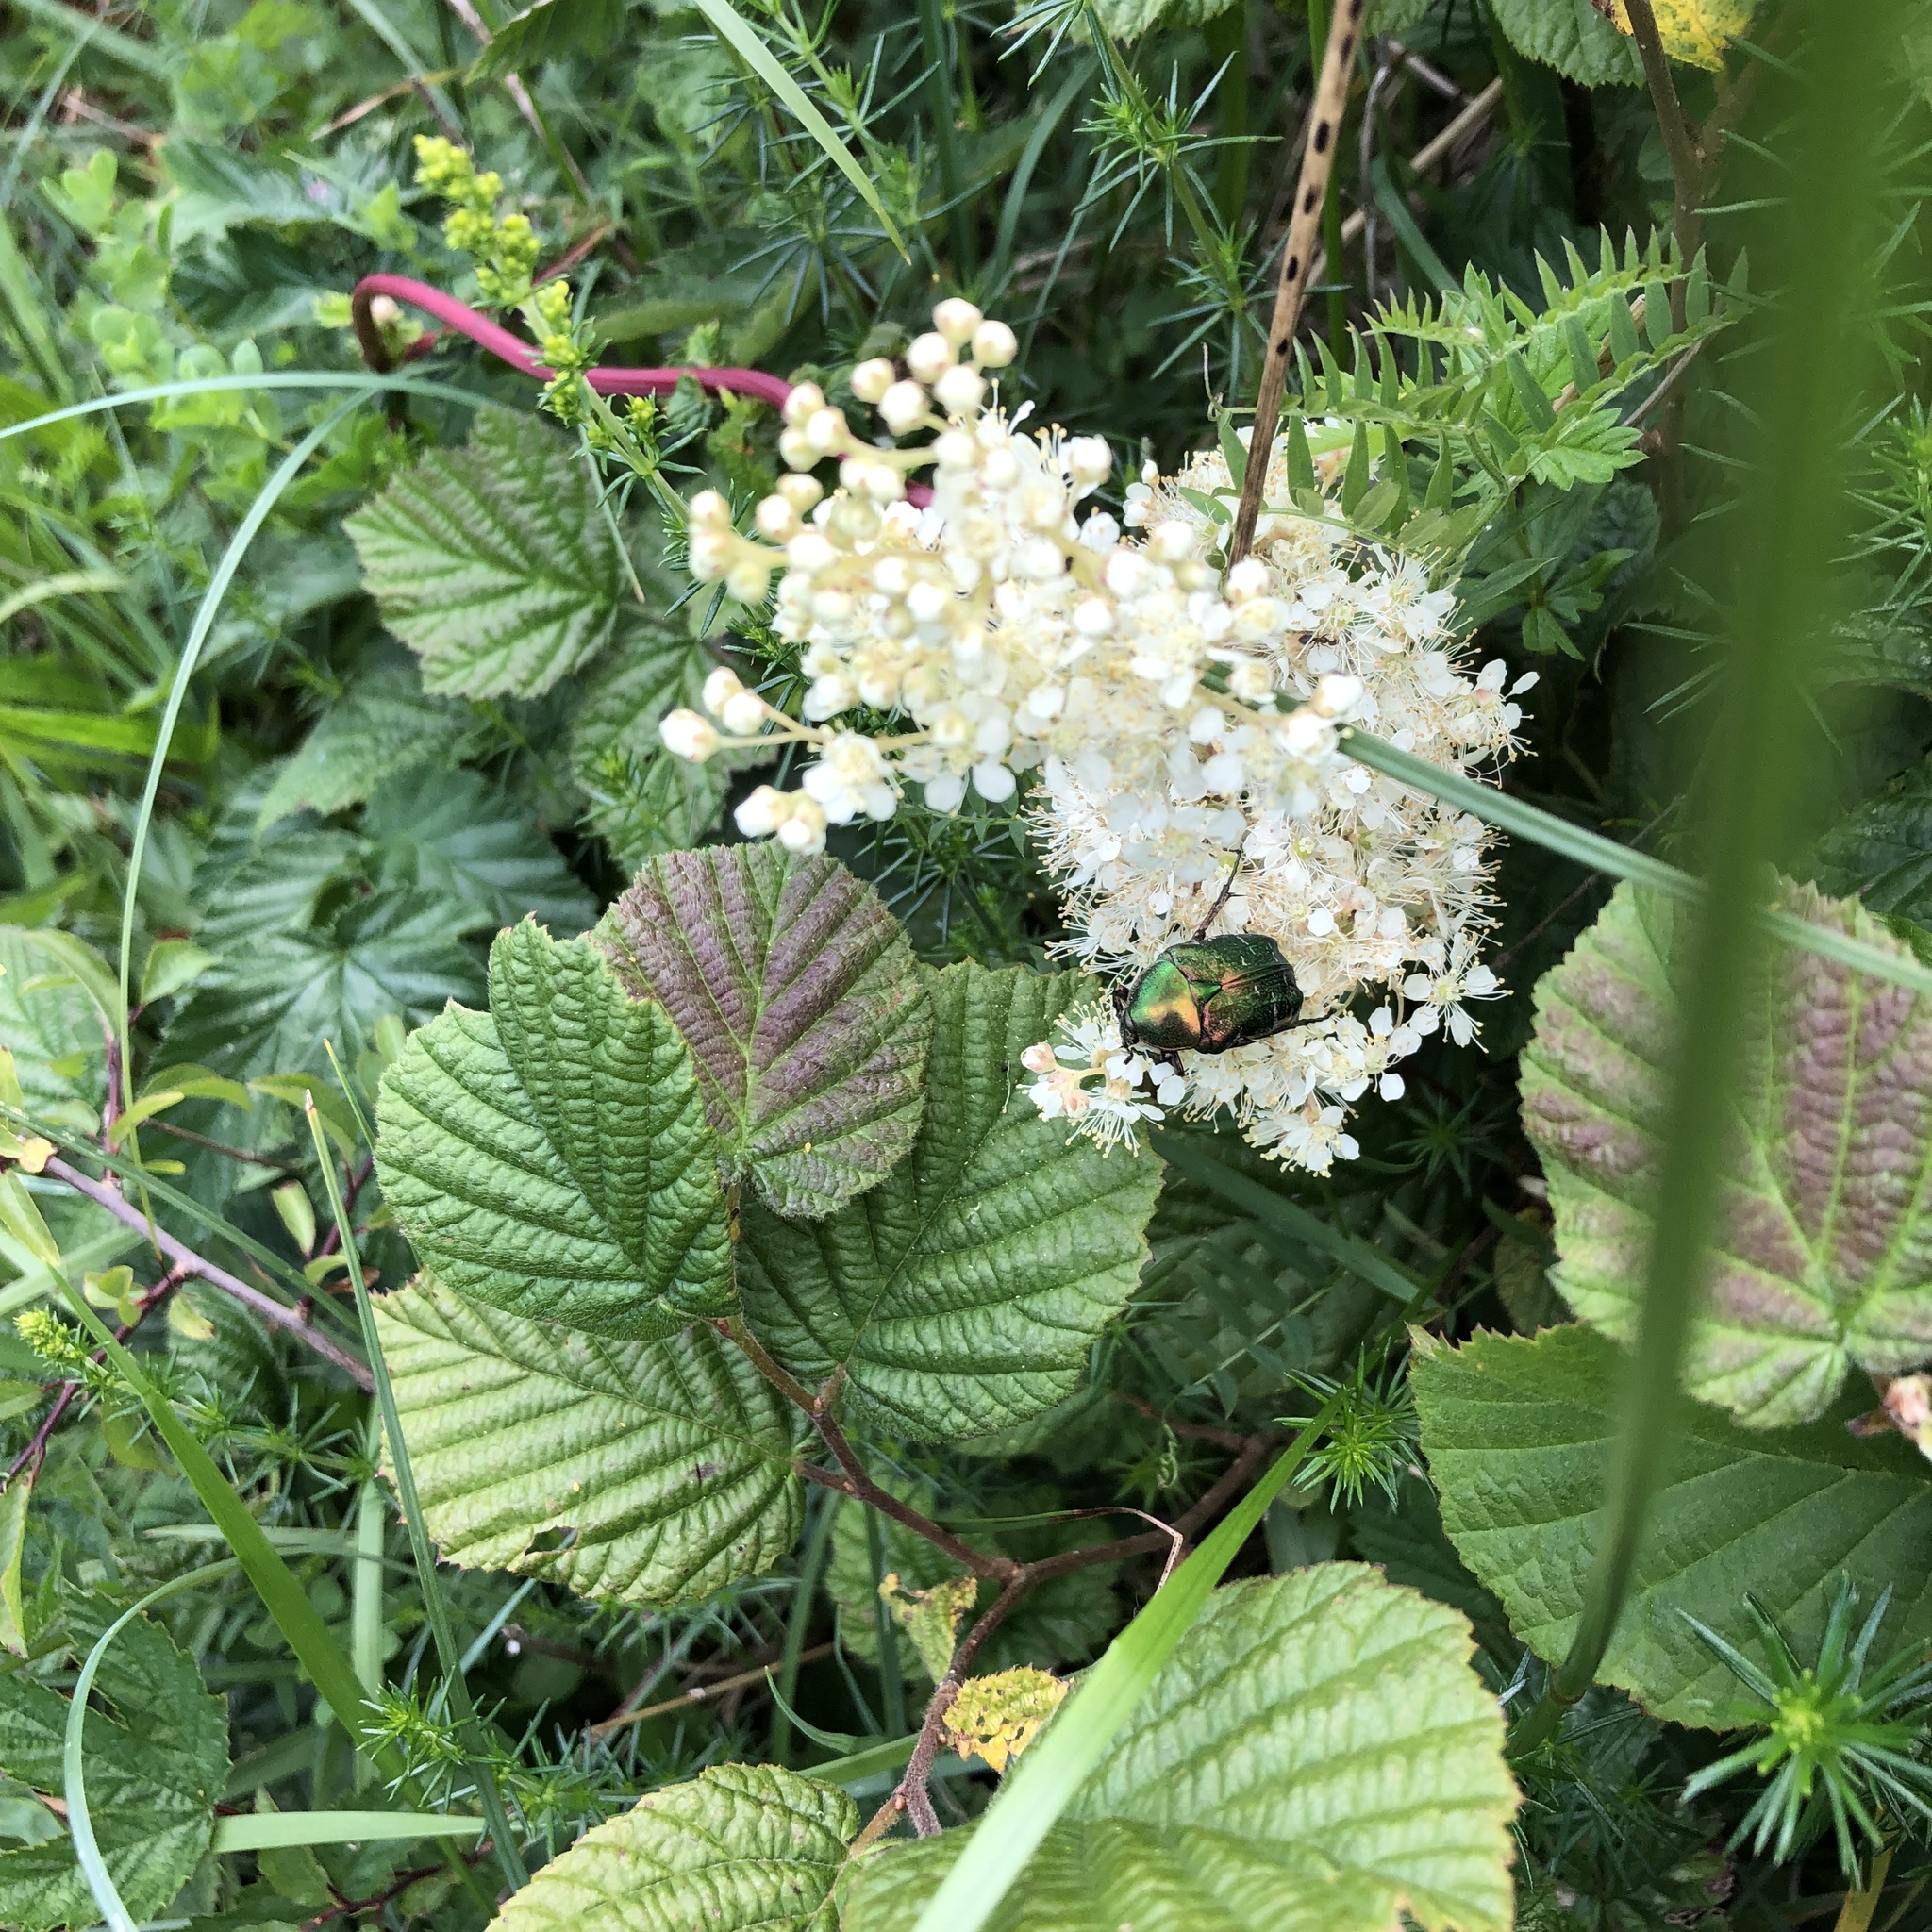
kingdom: Animalia
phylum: Arthropoda
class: Insecta
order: Coleoptera
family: Scarabaeidae
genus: Cetonia
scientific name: Cetonia aurata
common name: Rose chafer
